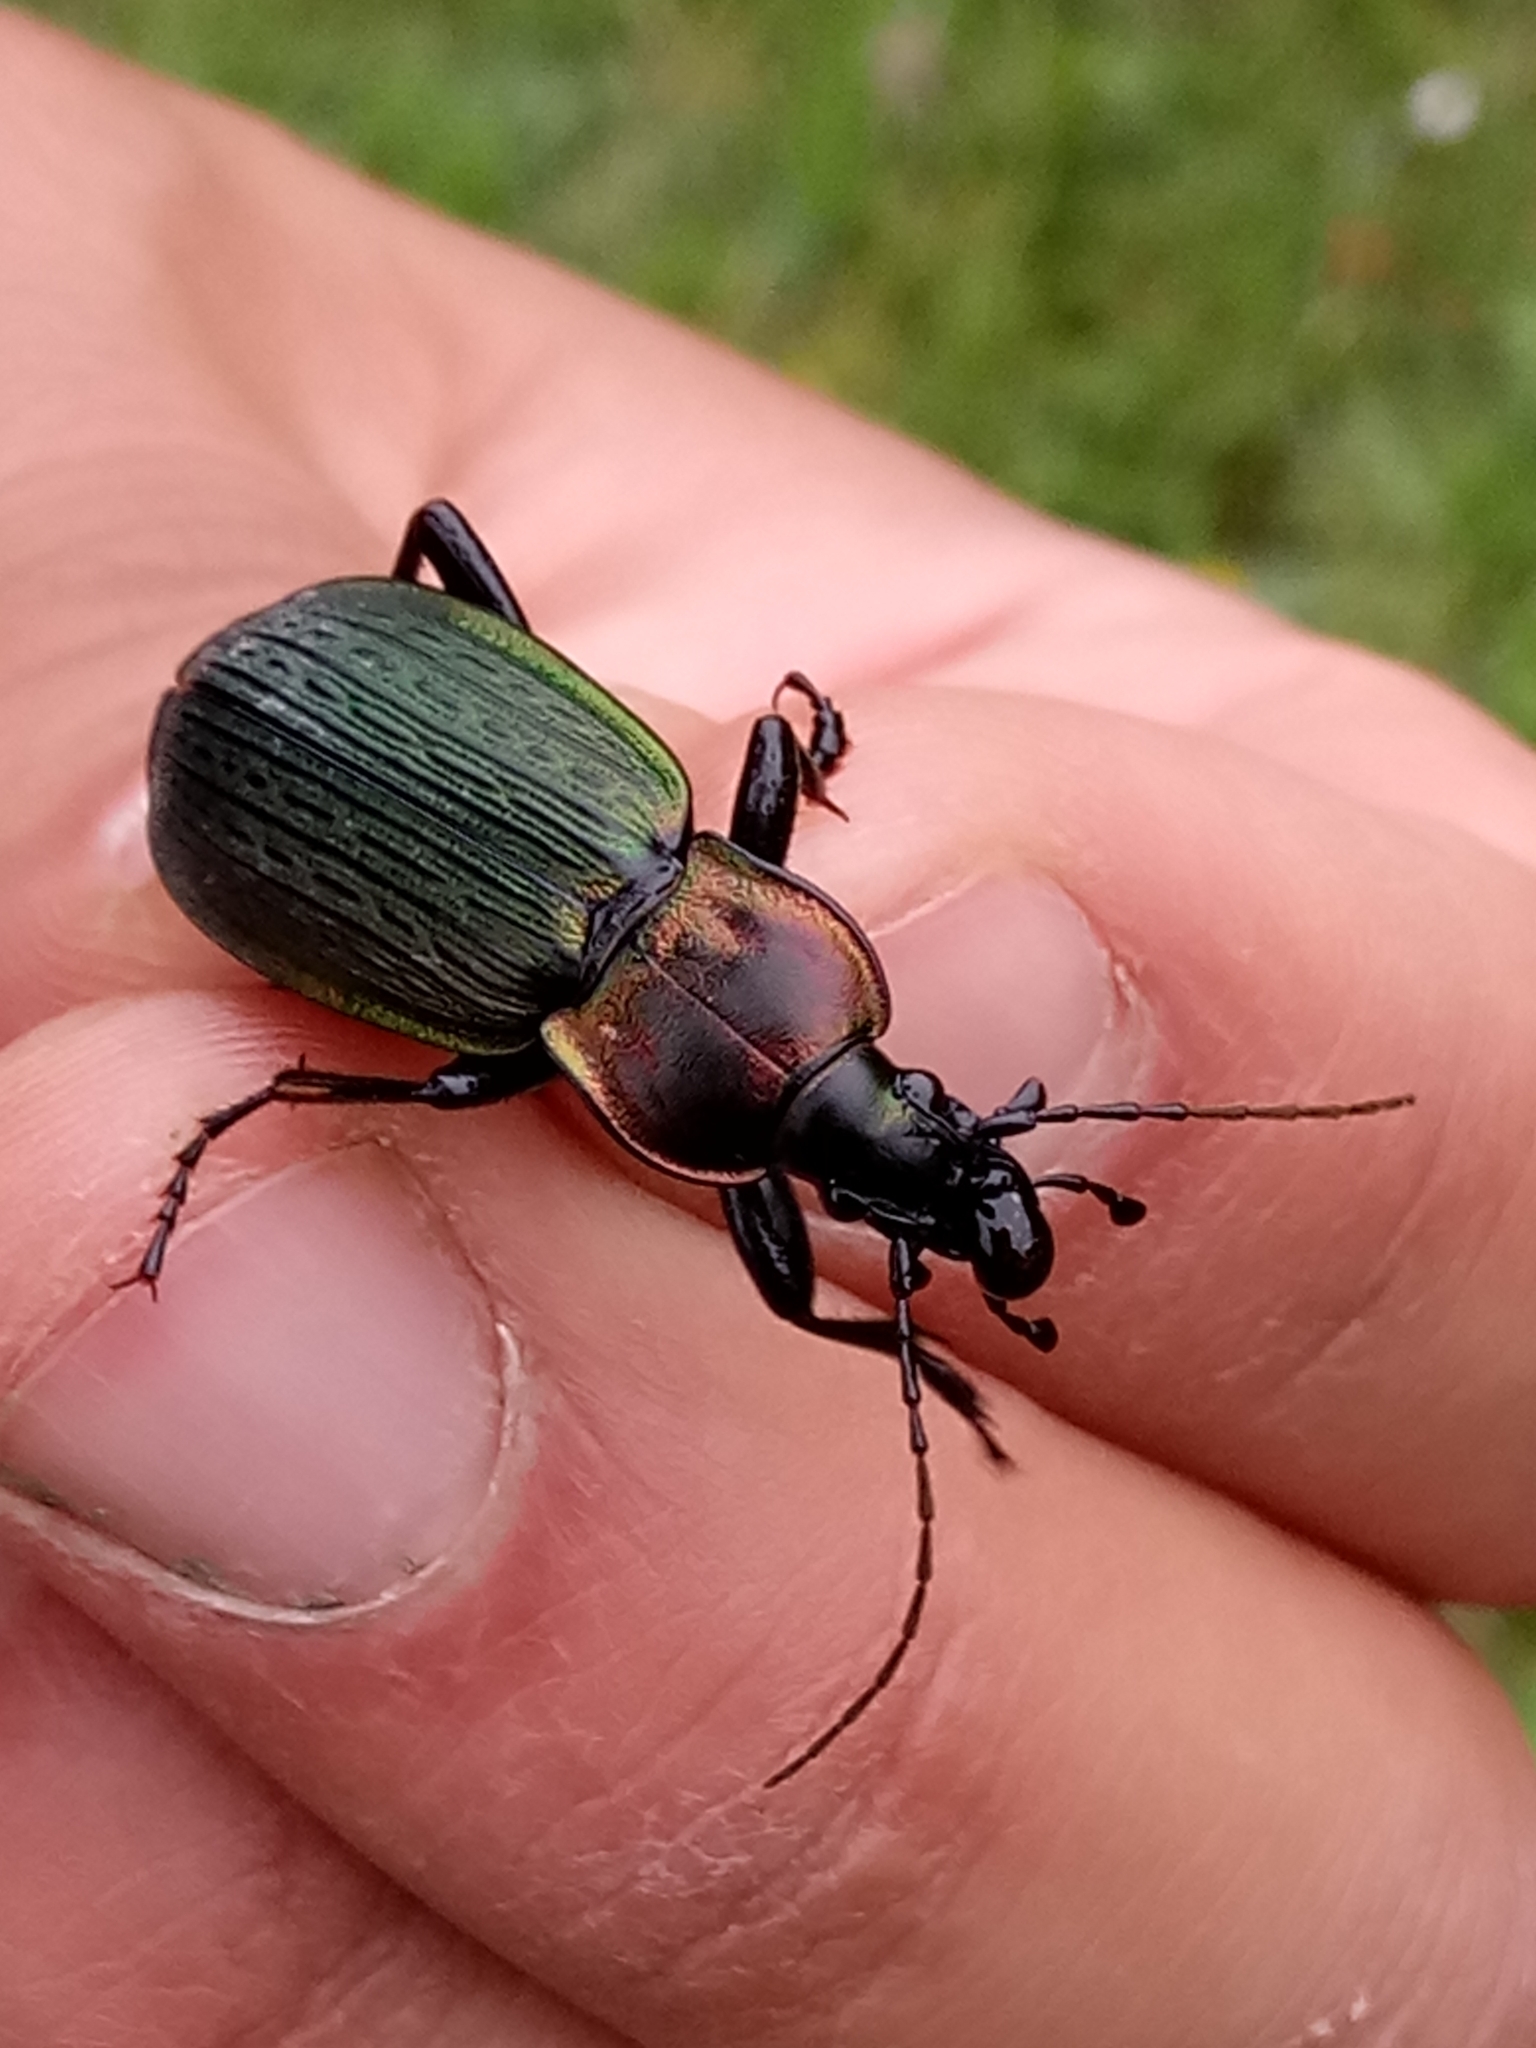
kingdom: Animalia
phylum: Arthropoda
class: Insecta
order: Coleoptera
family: Carabidae
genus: Carabus
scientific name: Carabus morbillosus
